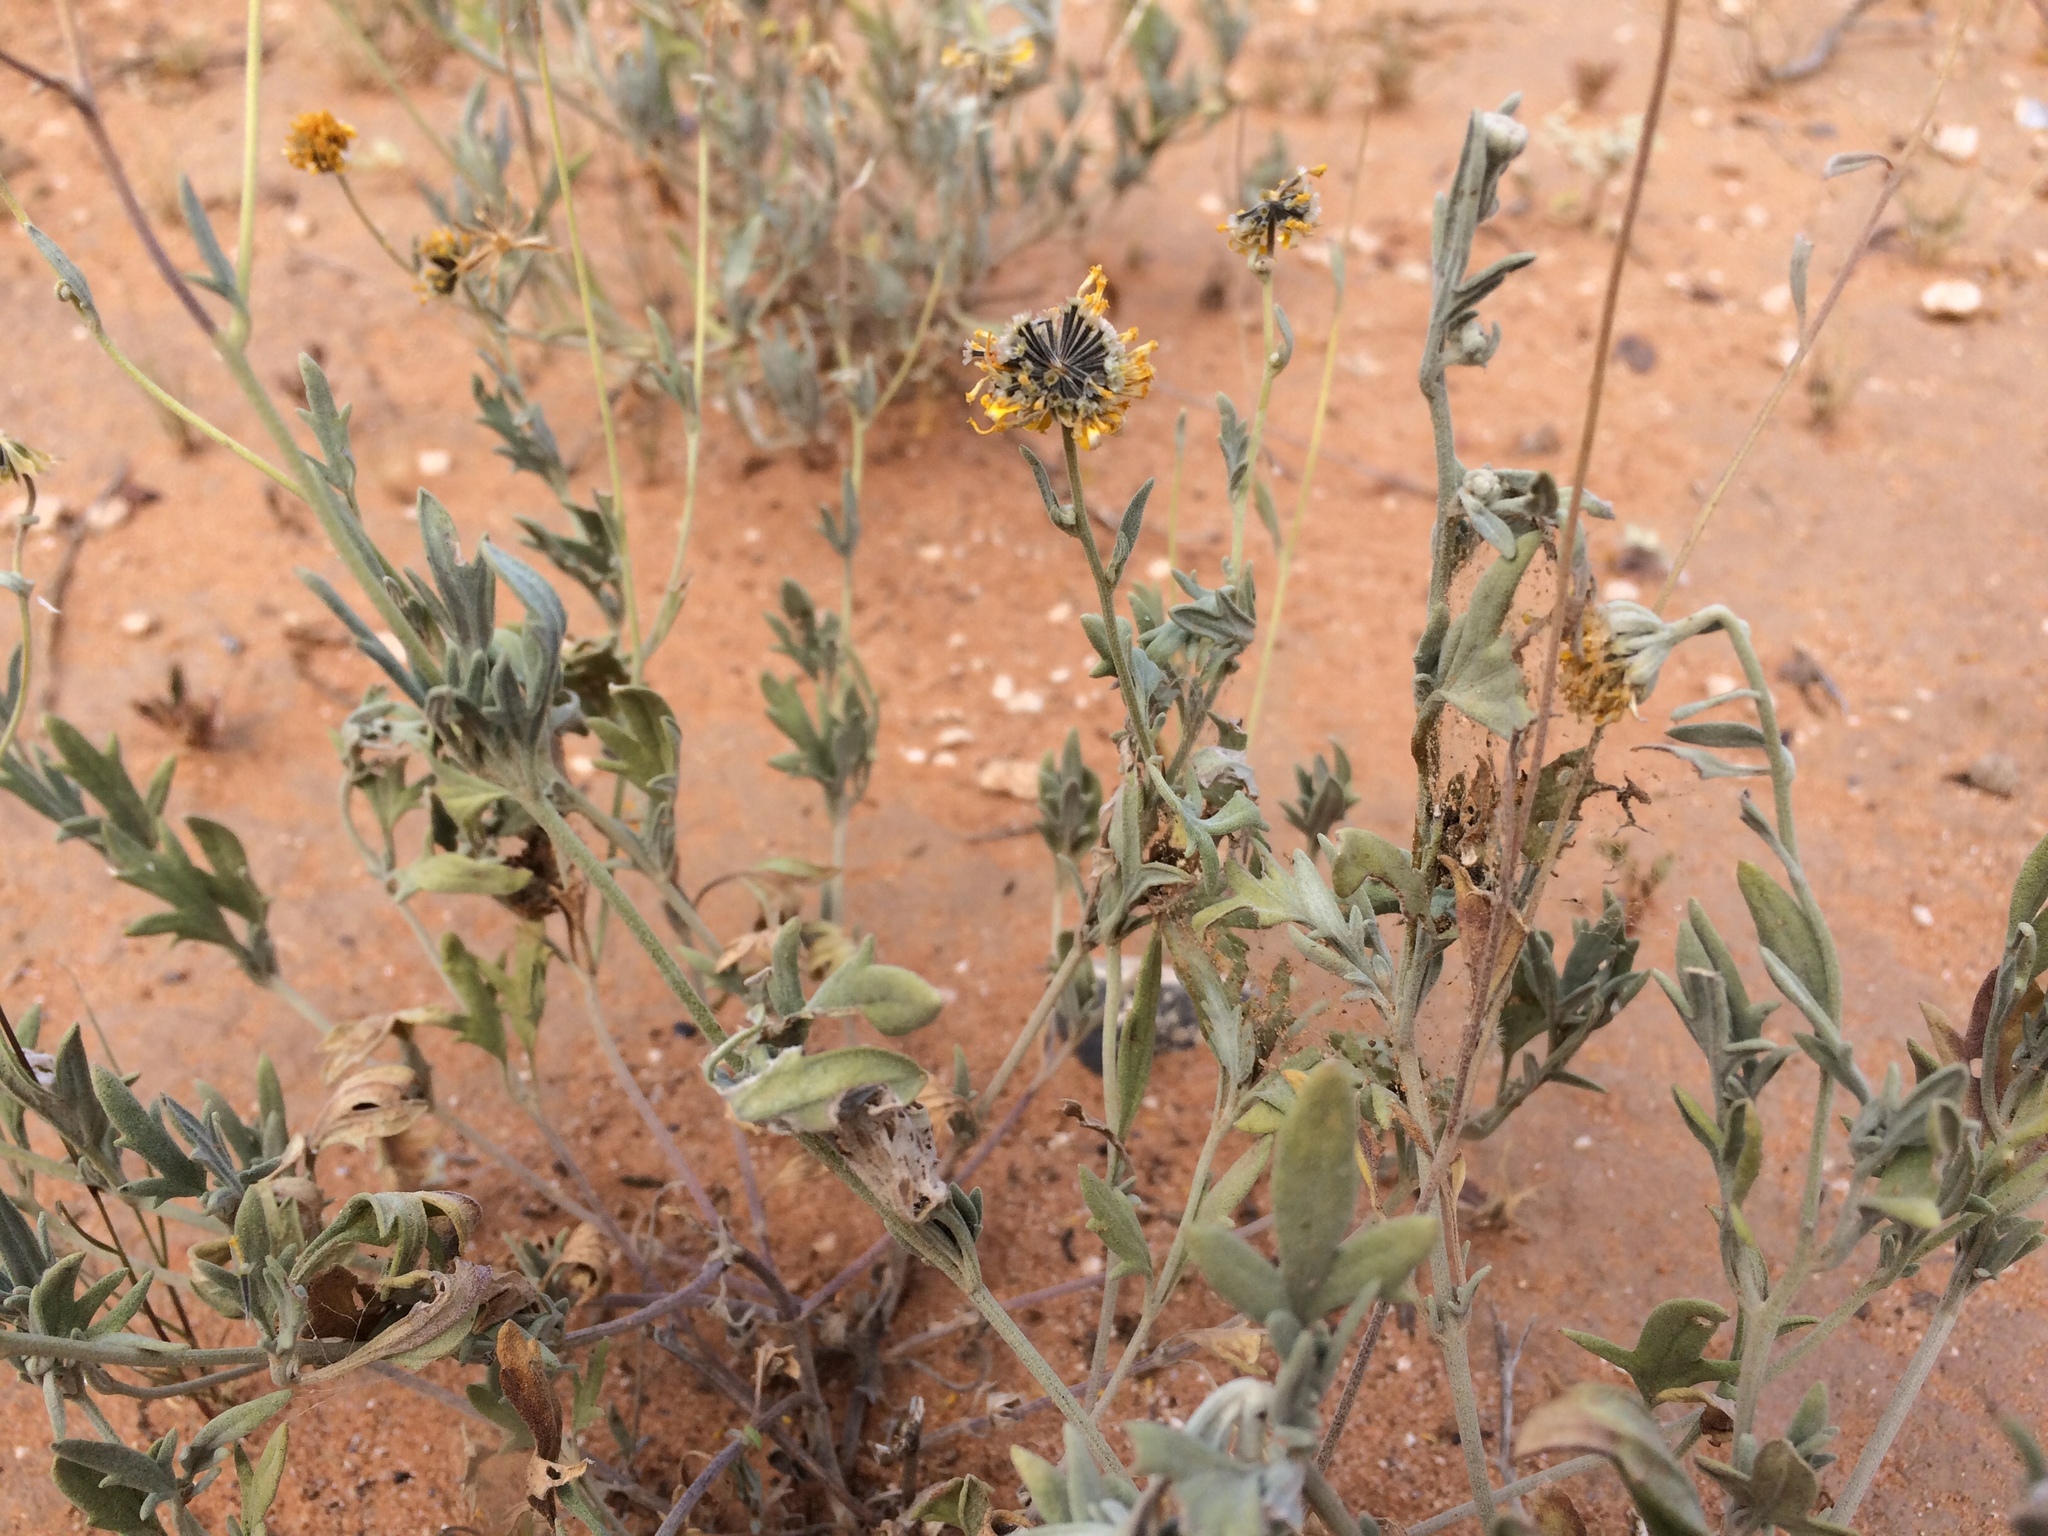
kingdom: Plantae
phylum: Tracheophyta
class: Magnoliopsida
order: Asterales
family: Asteraceae
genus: Picradeniopsis
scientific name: Picradeniopsis absinthifolia
